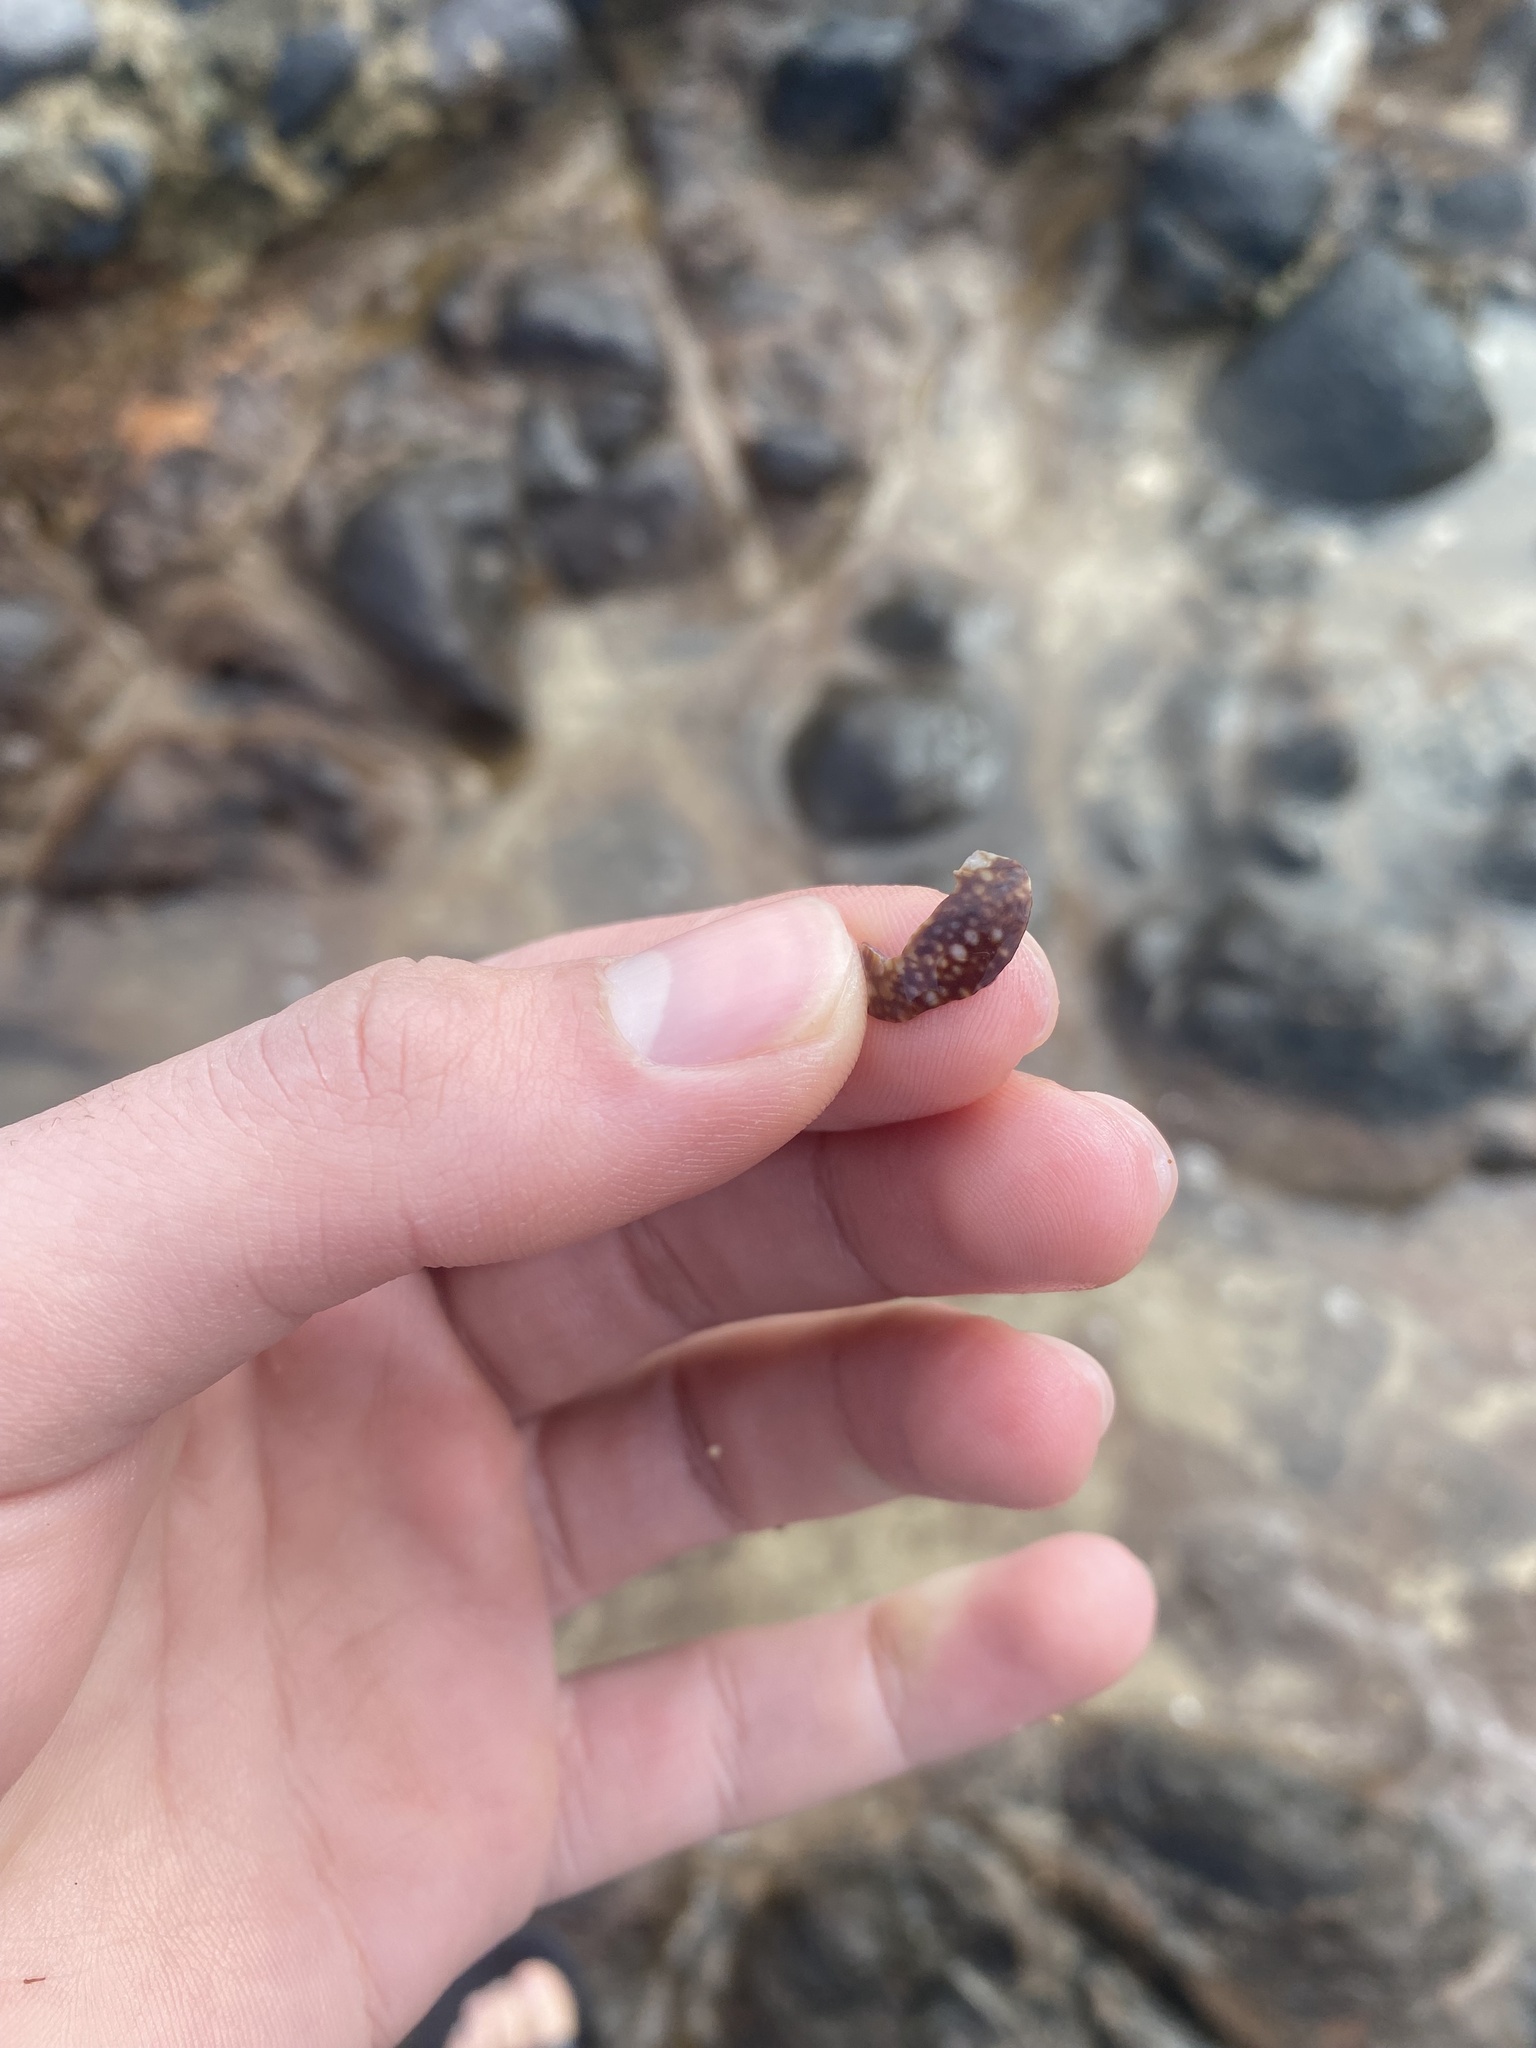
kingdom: Animalia
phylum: Mollusca
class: Gastropoda
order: Littorinimorpha
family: Cypraeidae
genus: Monetaria
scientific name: Monetaria caputophidii
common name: Snake's head cowry
